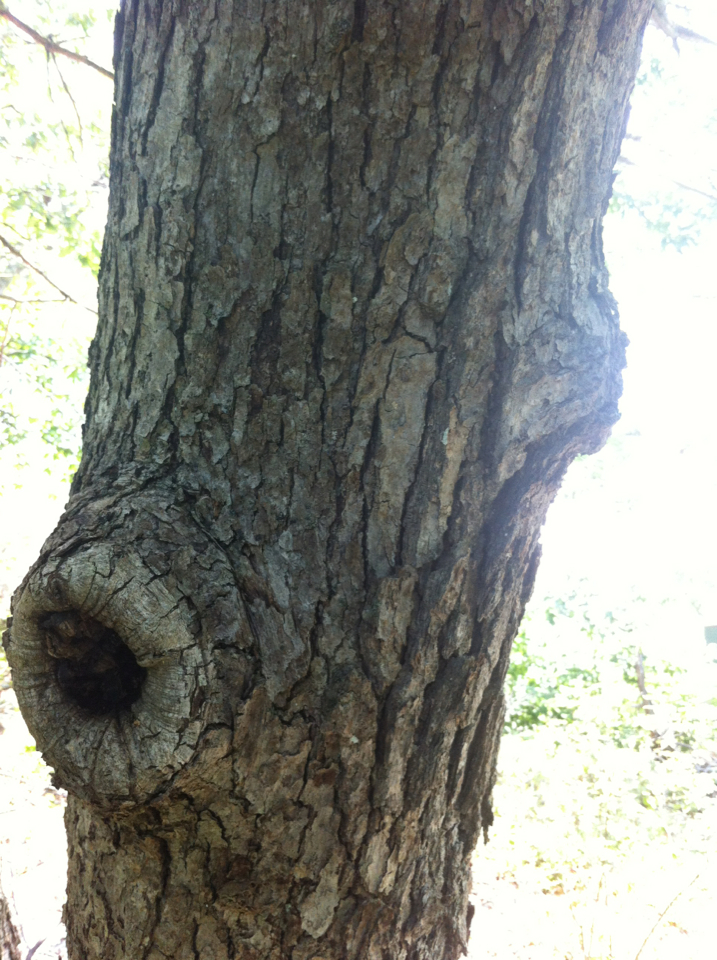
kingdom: Plantae
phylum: Tracheophyta
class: Magnoliopsida
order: Fagales
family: Fagaceae
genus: Quercus
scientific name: Quercus alba
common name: White oak
